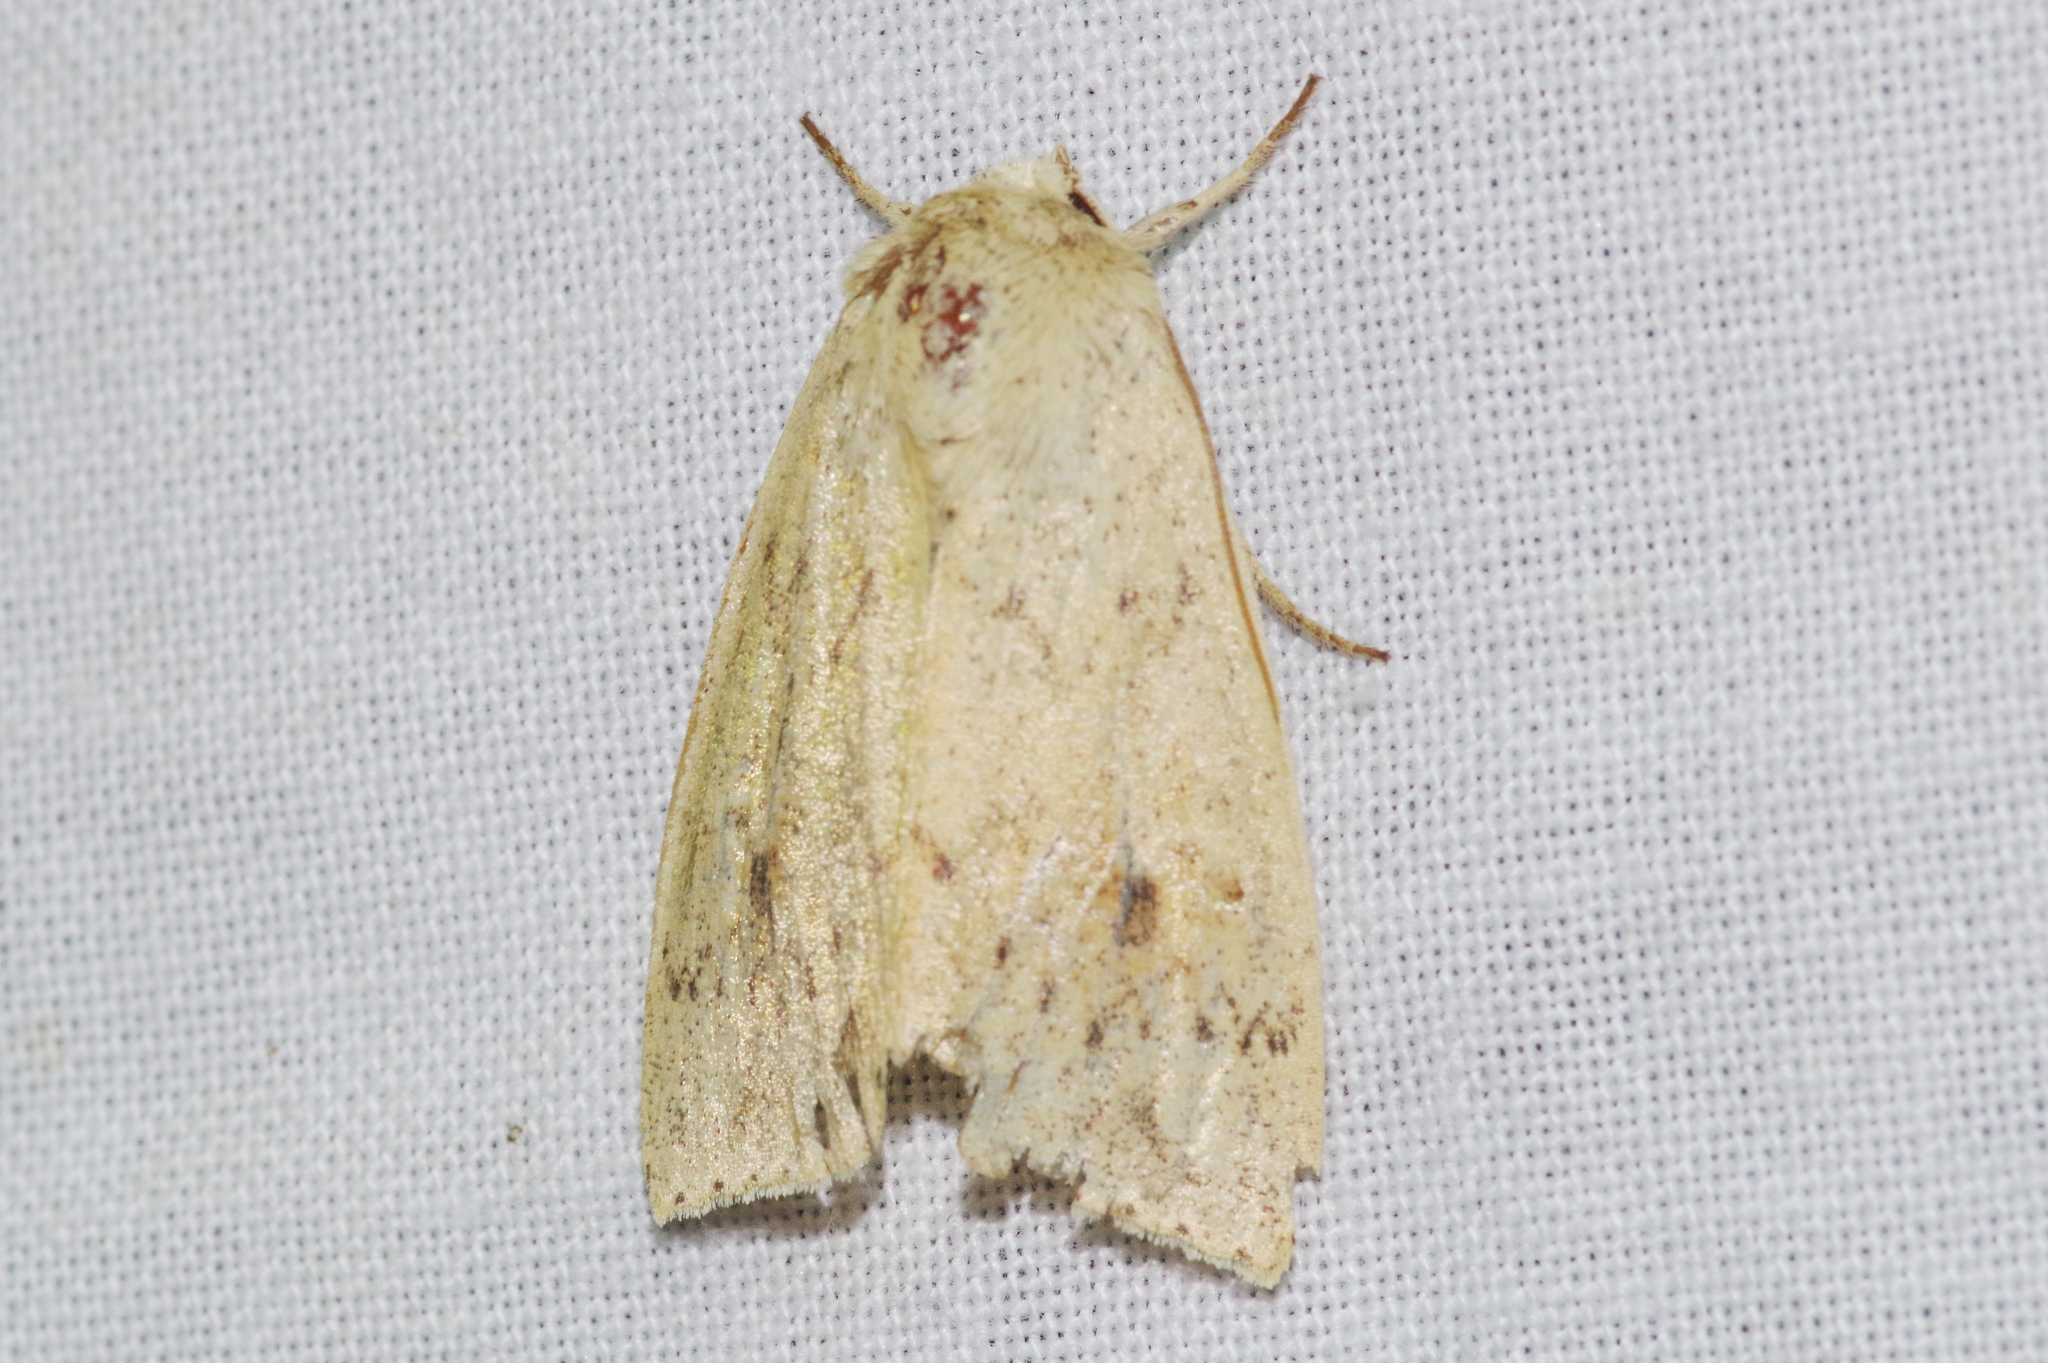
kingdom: Animalia
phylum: Arthropoda
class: Insecta
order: Lepidoptera
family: Noctuidae
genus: Mythimna
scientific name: Mythimna placida
